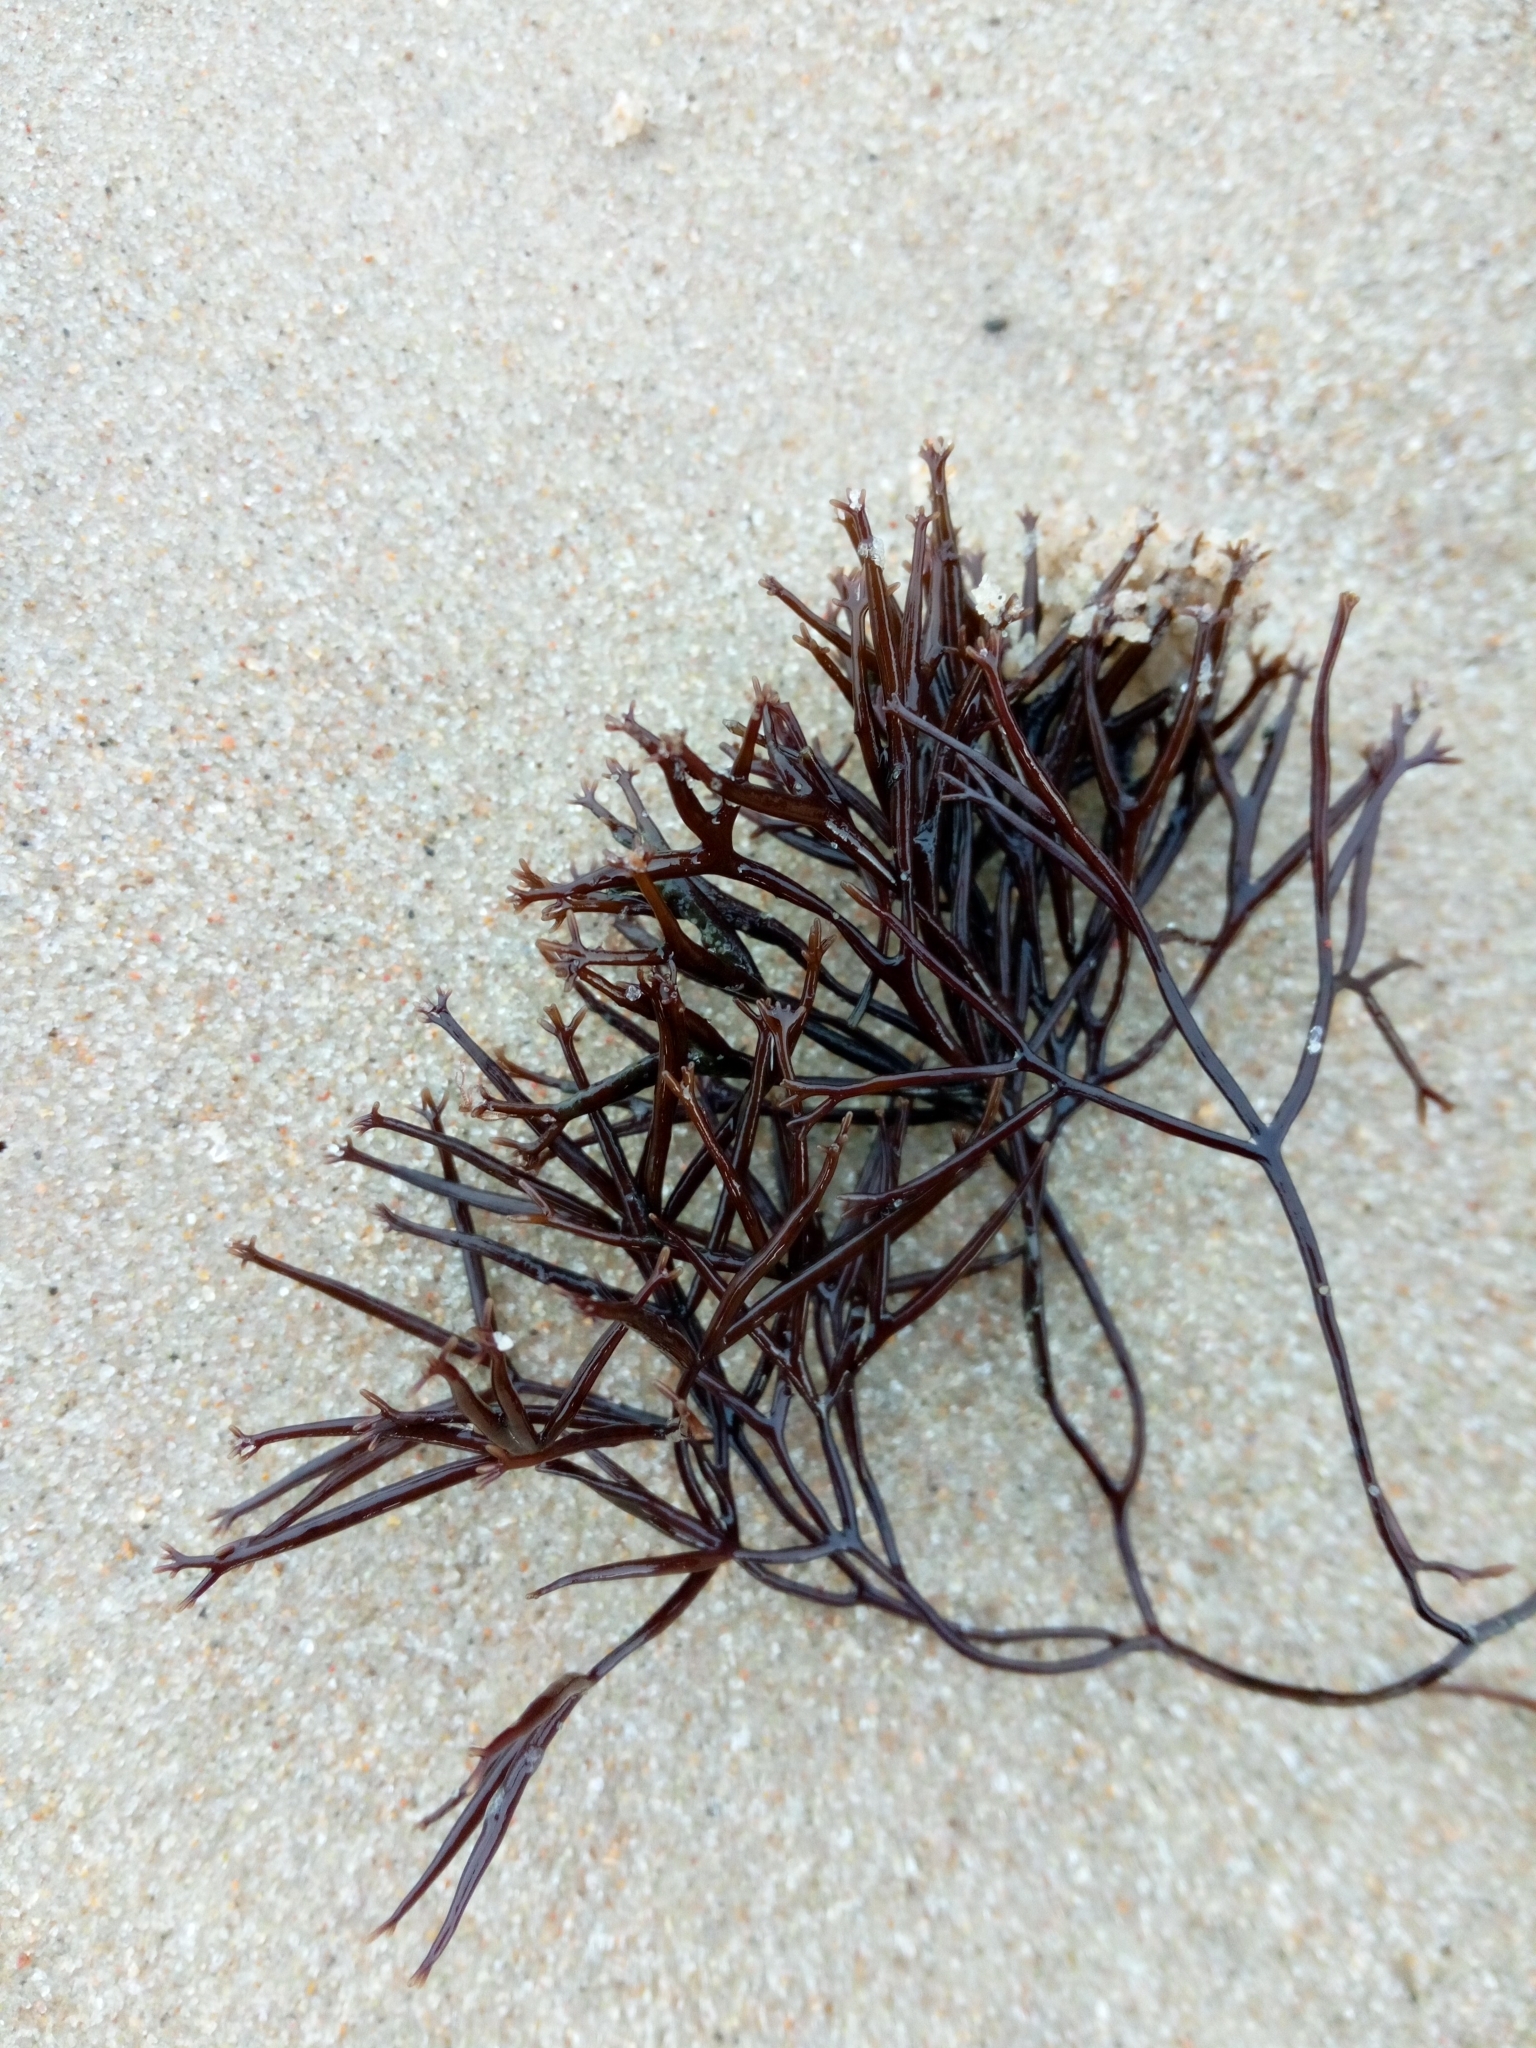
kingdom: Plantae
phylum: Rhodophyta
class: Florideophyceae
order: Gigartinales
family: Furcellariaceae
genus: Furcellaria
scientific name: Furcellaria lumbricalis
